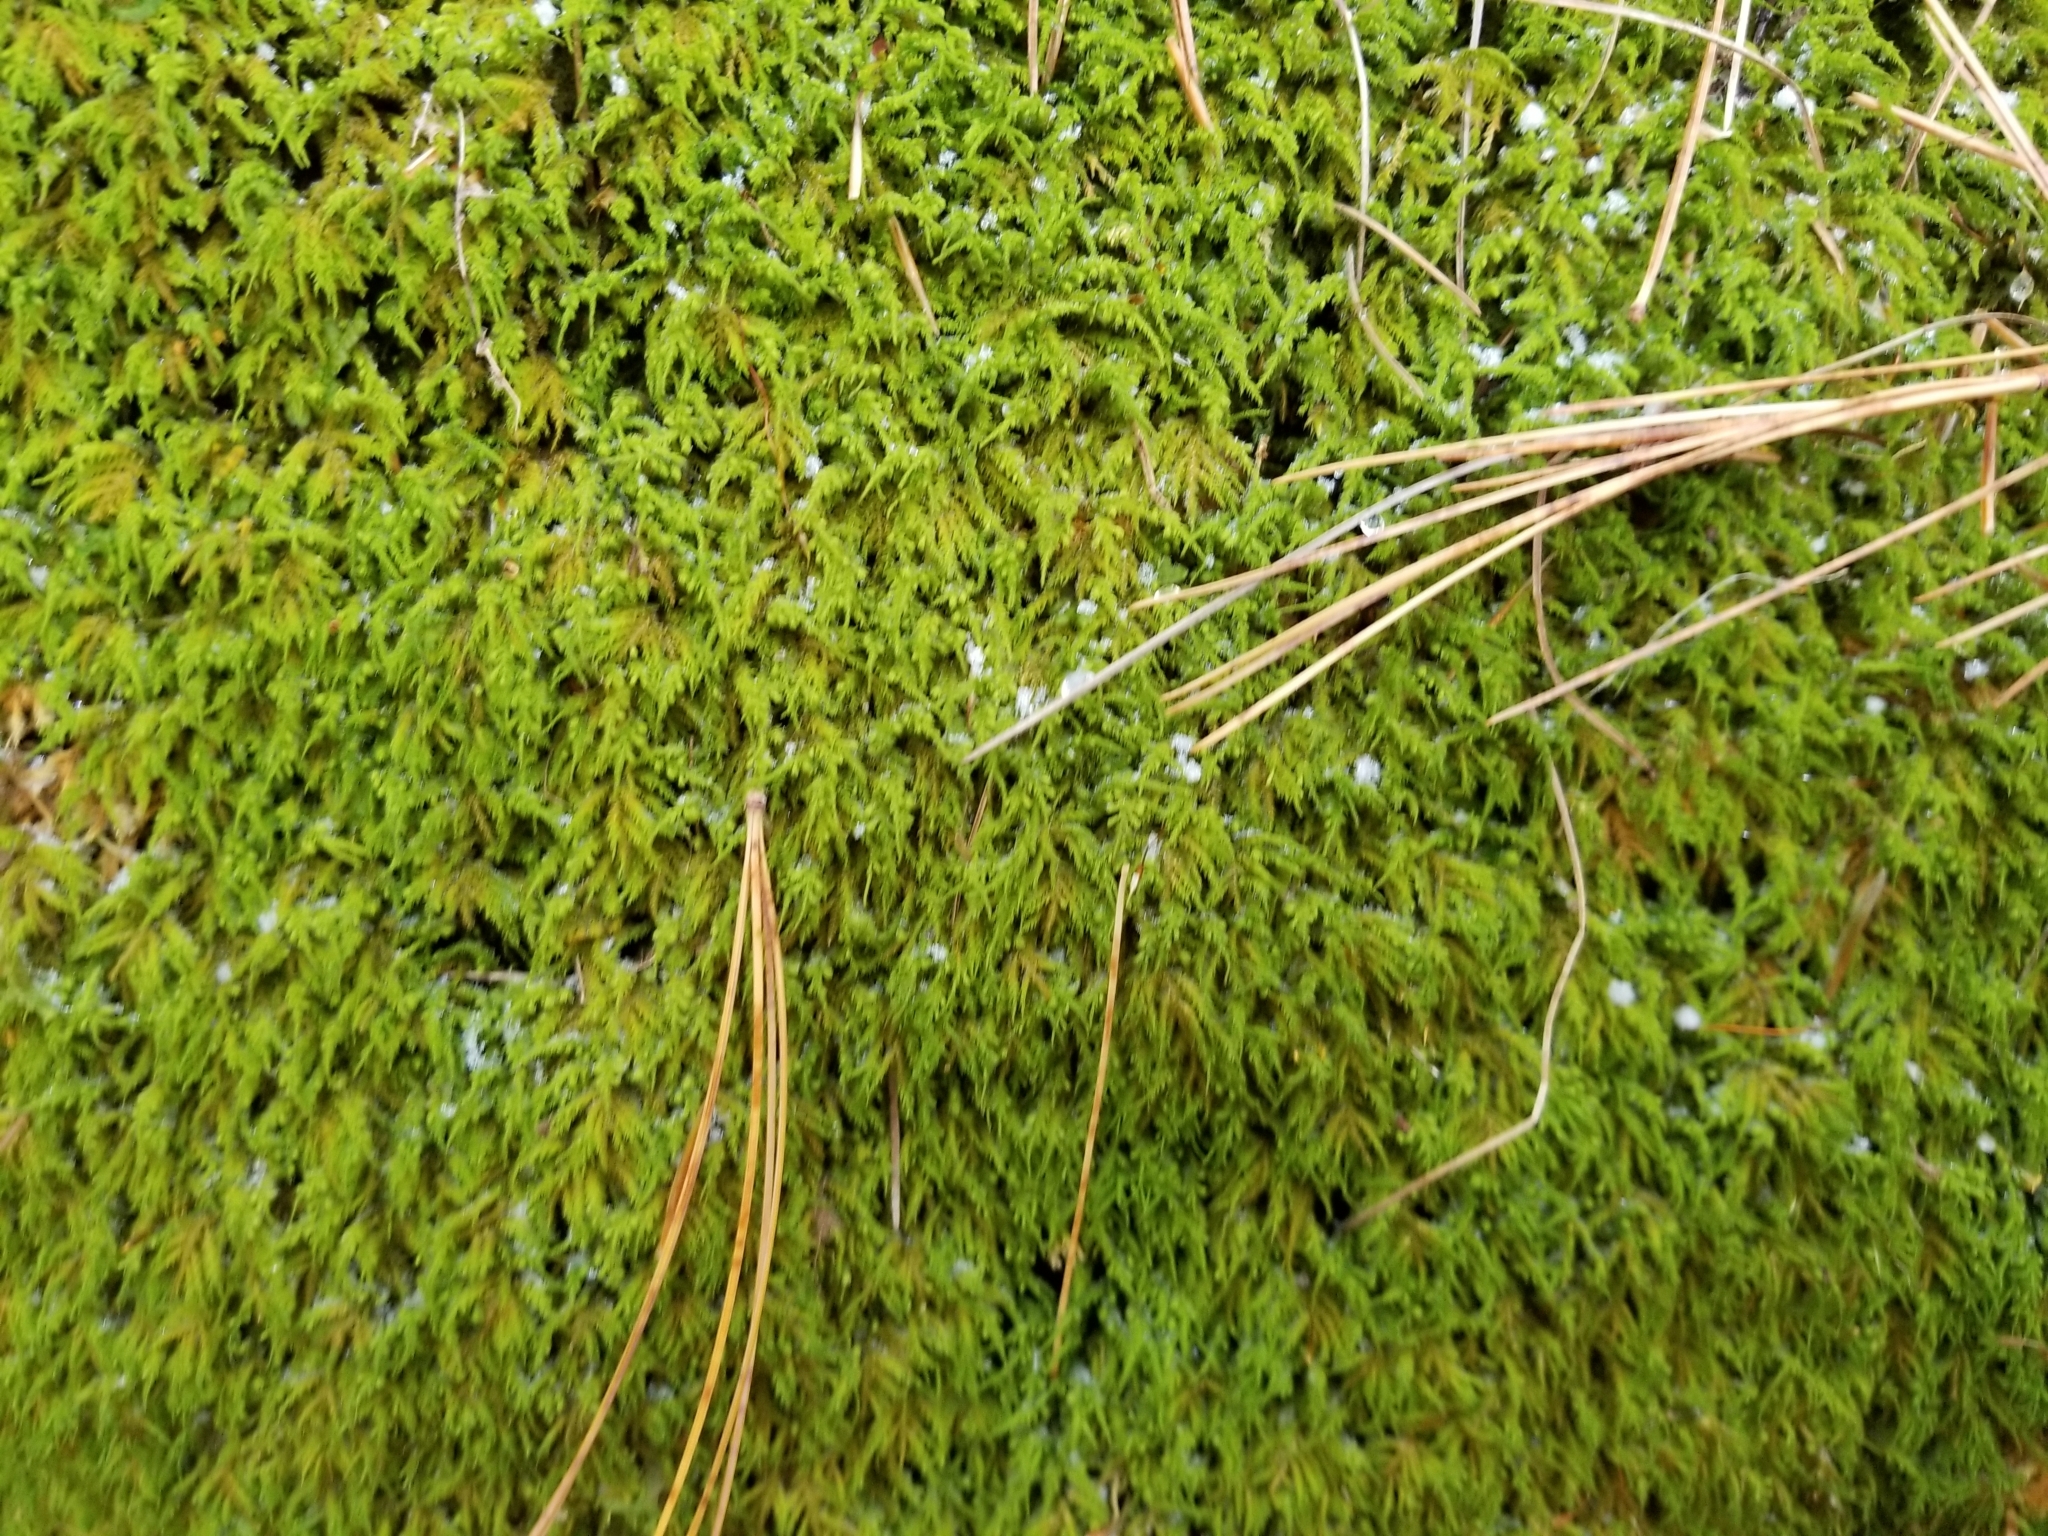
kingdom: Plantae
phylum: Bryophyta
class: Bryopsida
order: Hypnales
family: Neckeraceae
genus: Pseudanomodon
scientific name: Pseudanomodon attenuatus
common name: Tree-skirt moss
